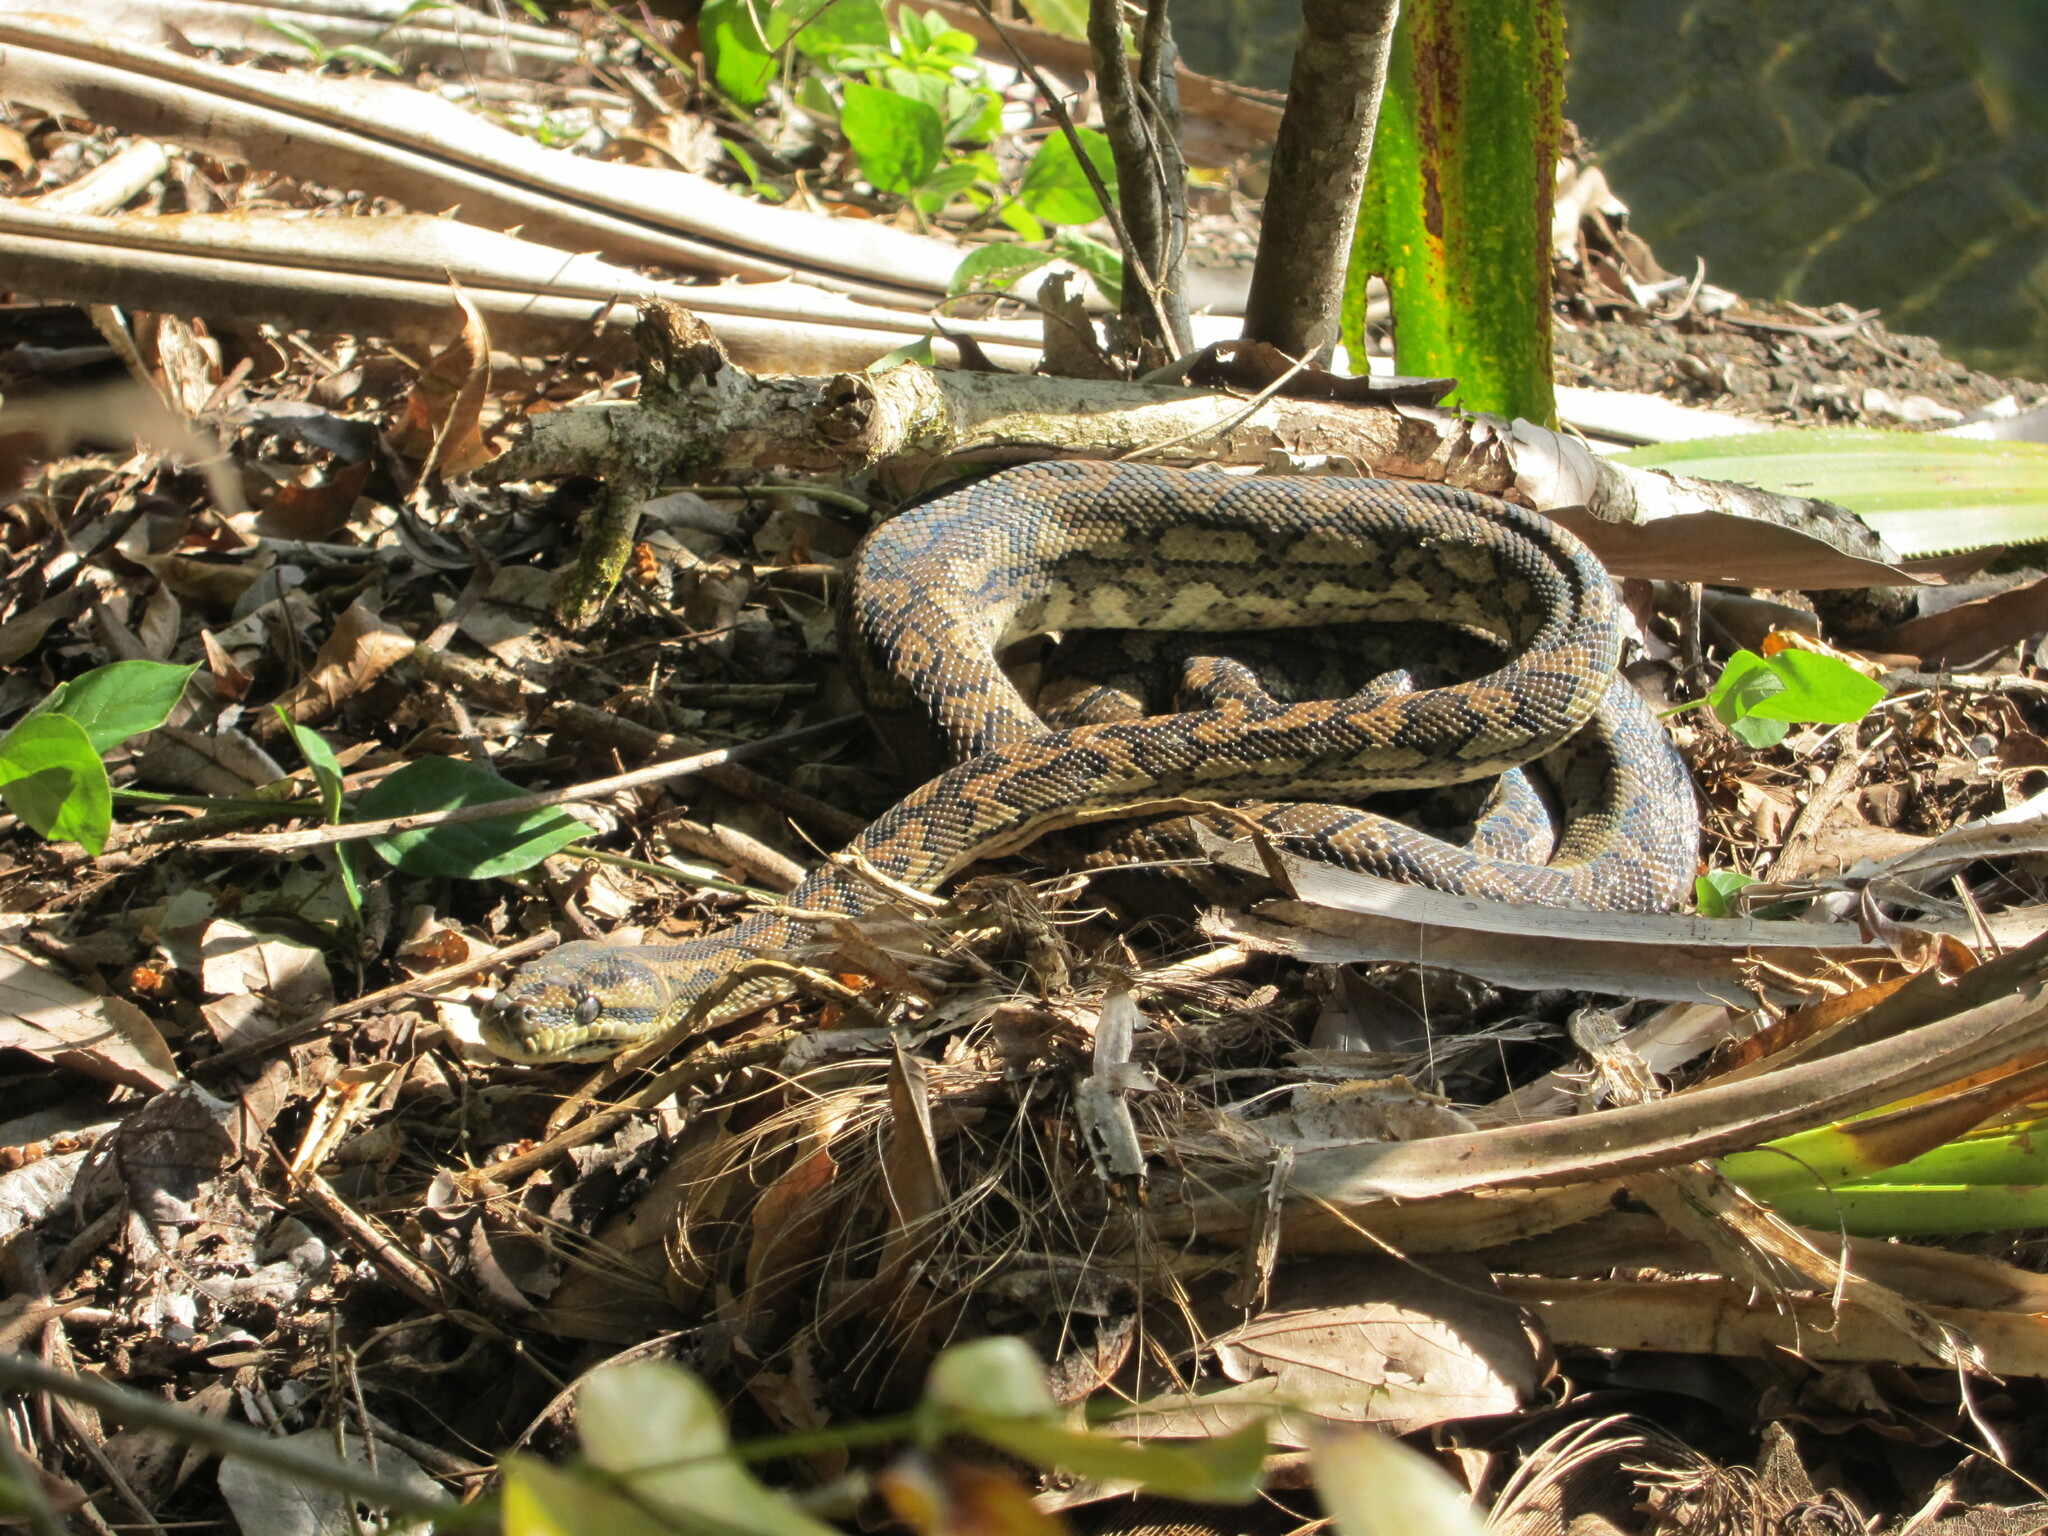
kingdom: Animalia
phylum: Chordata
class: Squamata
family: Pythonidae
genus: Morelia
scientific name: Morelia spilota
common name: Carpet python
